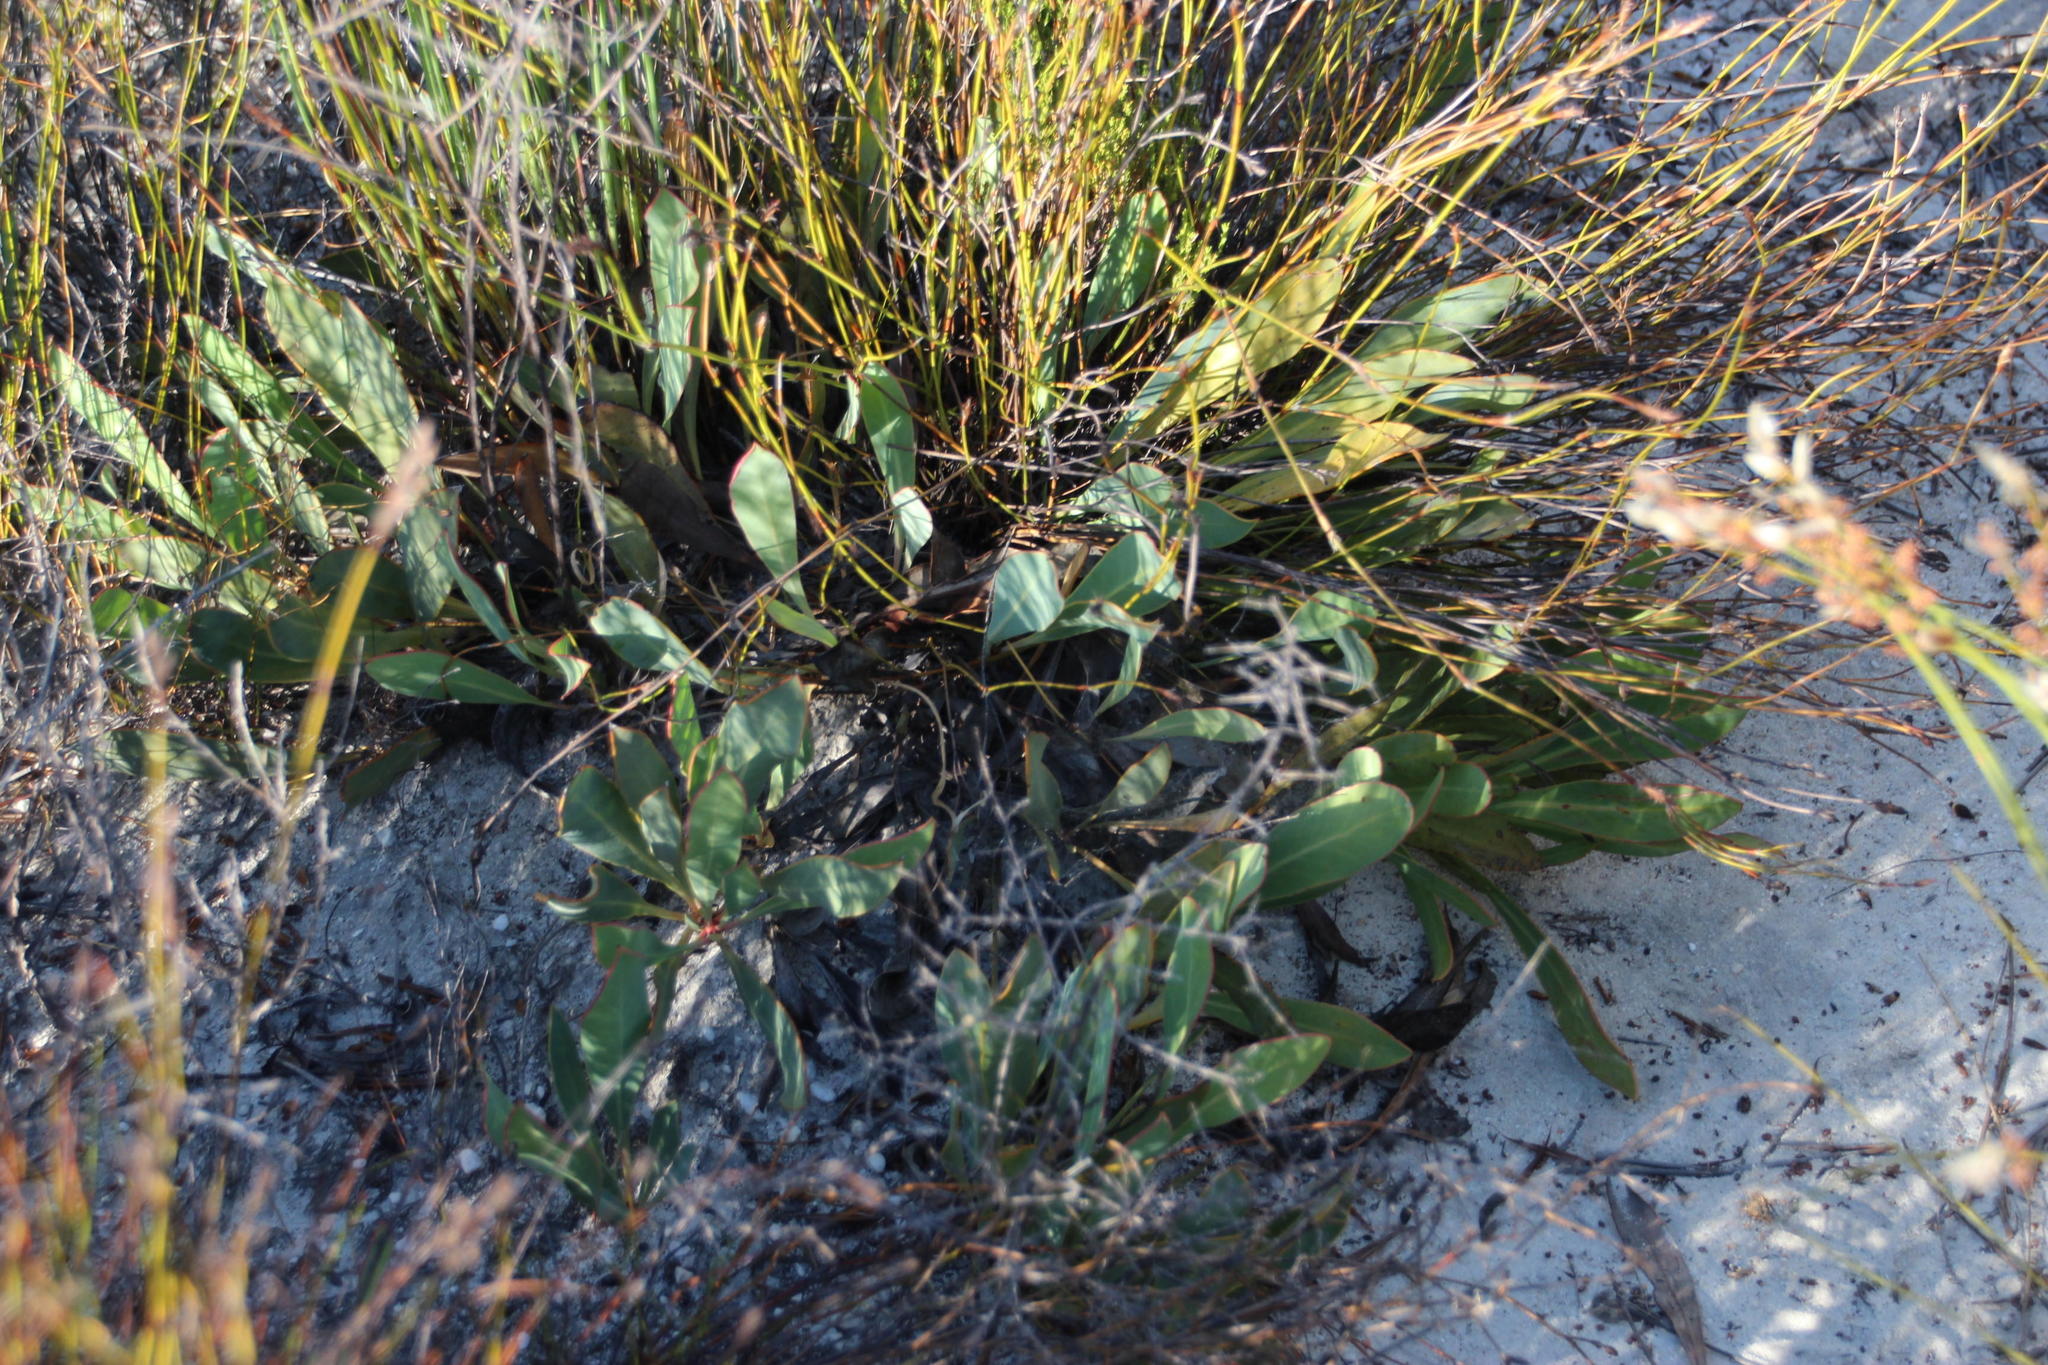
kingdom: Plantae
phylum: Tracheophyta
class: Magnoliopsida
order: Proteales
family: Proteaceae
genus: Protea
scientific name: Protea acaulos
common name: Common ground sugarbush
